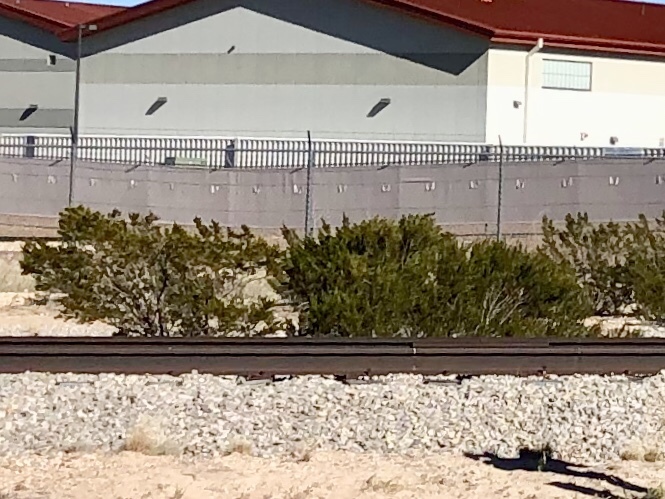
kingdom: Plantae
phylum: Tracheophyta
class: Magnoliopsida
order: Zygophyllales
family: Zygophyllaceae
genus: Larrea
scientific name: Larrea tridentata
